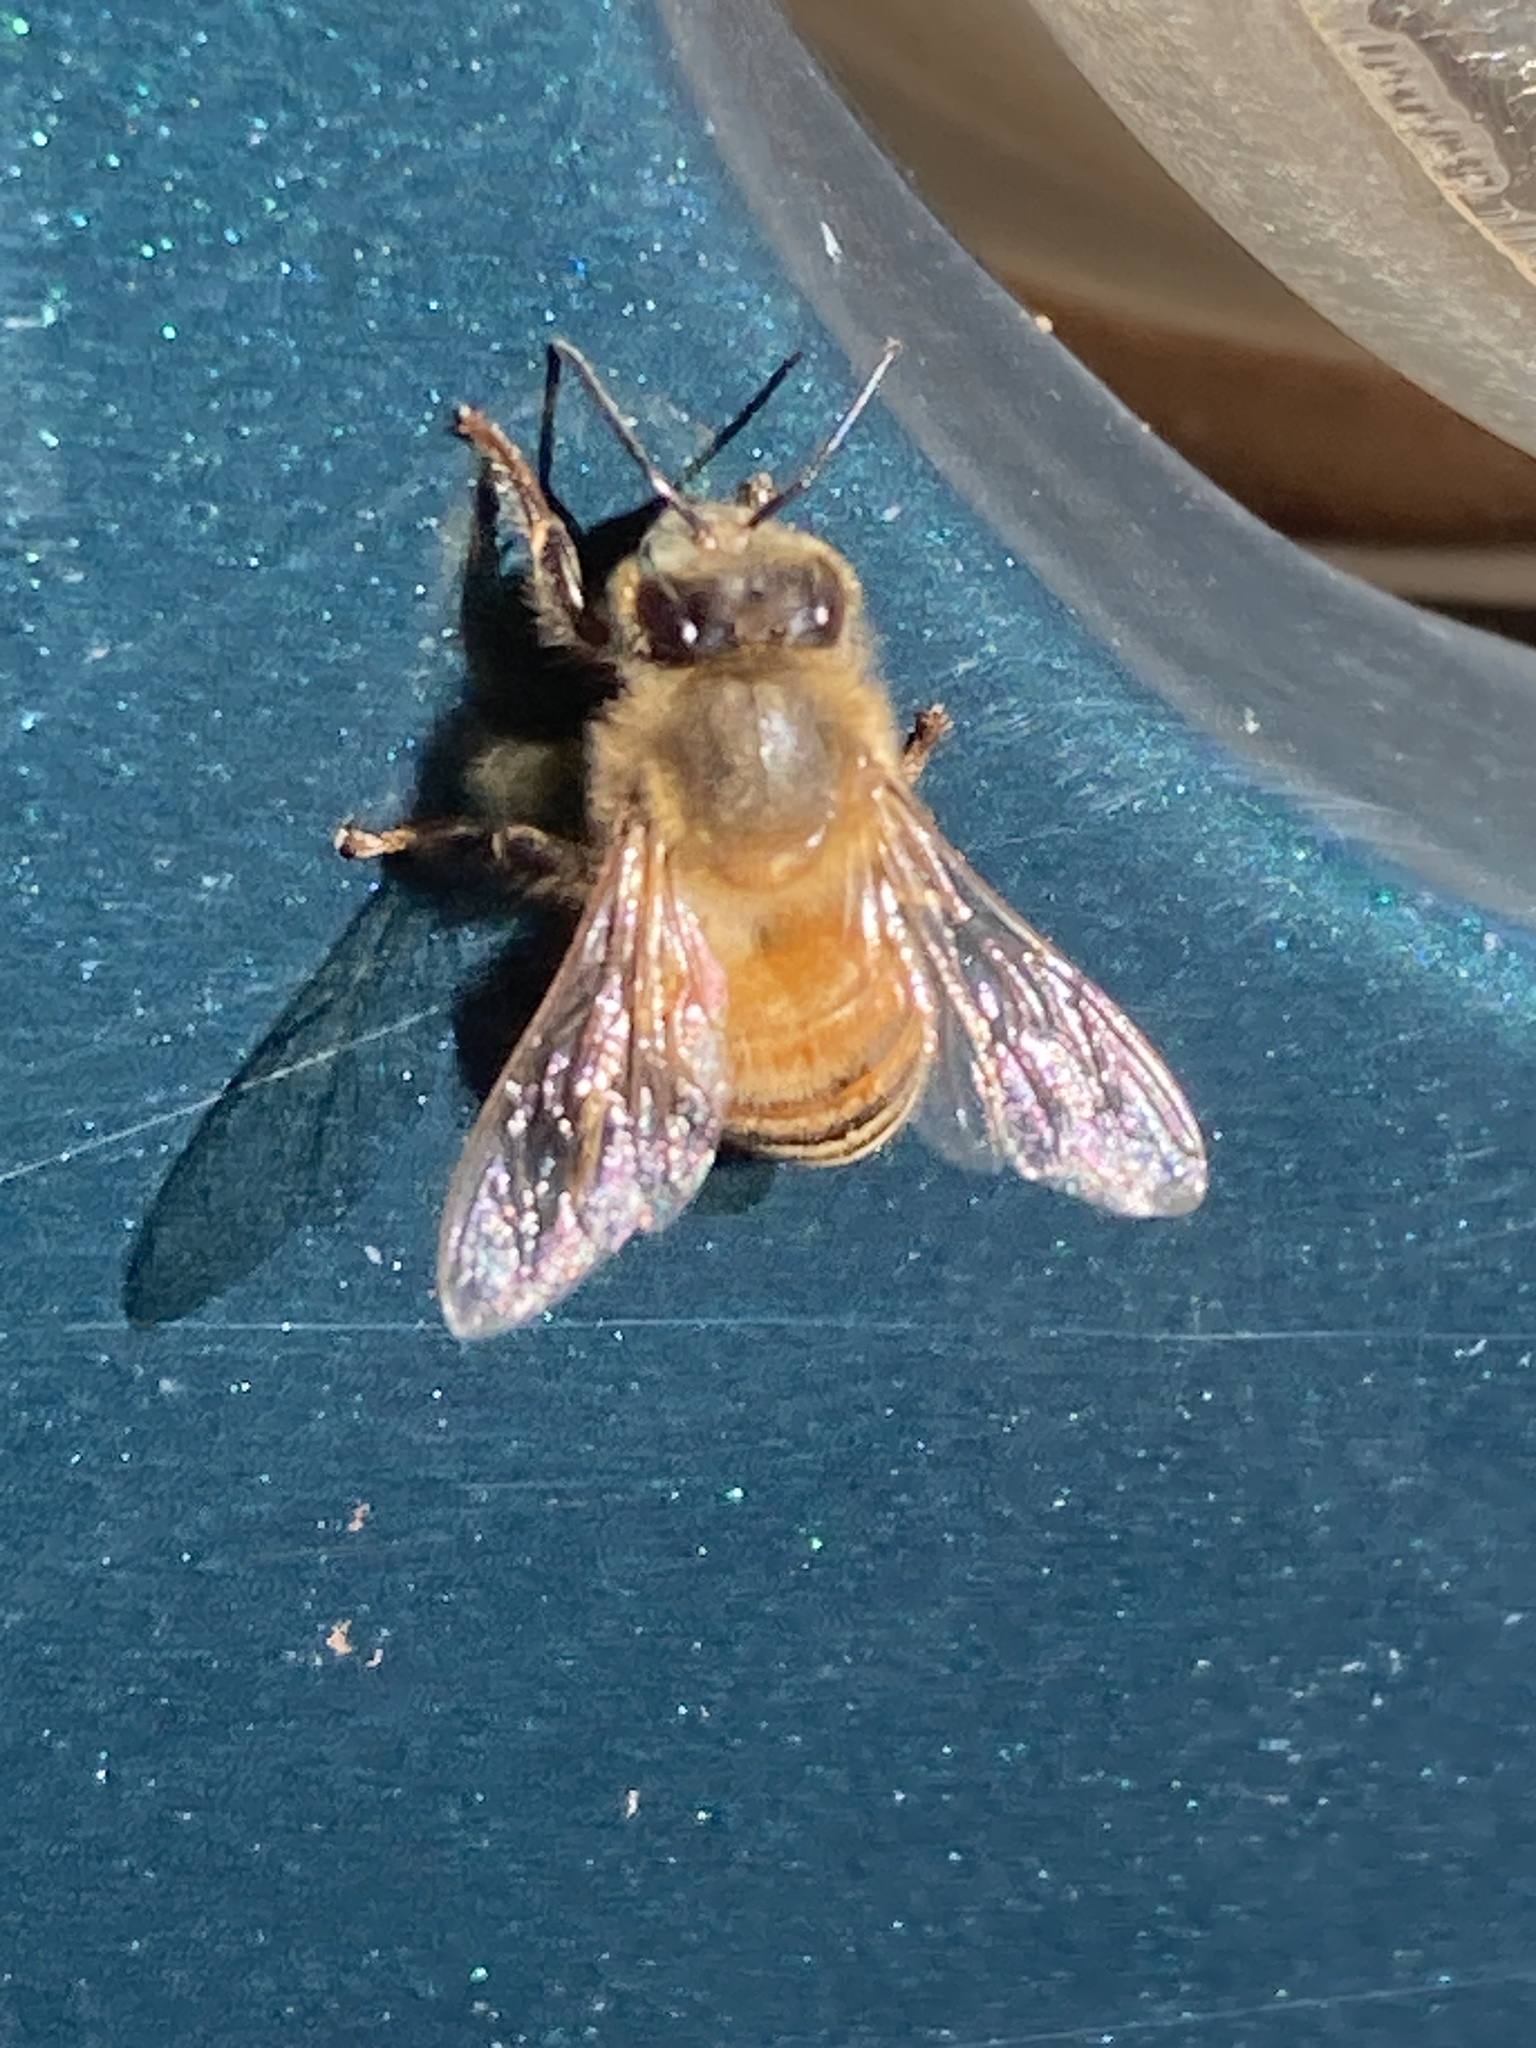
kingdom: Animalia
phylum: Arthropoda
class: Insecta
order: Hymenoptera
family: Apidae
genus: Apis
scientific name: Apis mellifera
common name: Honey bee
